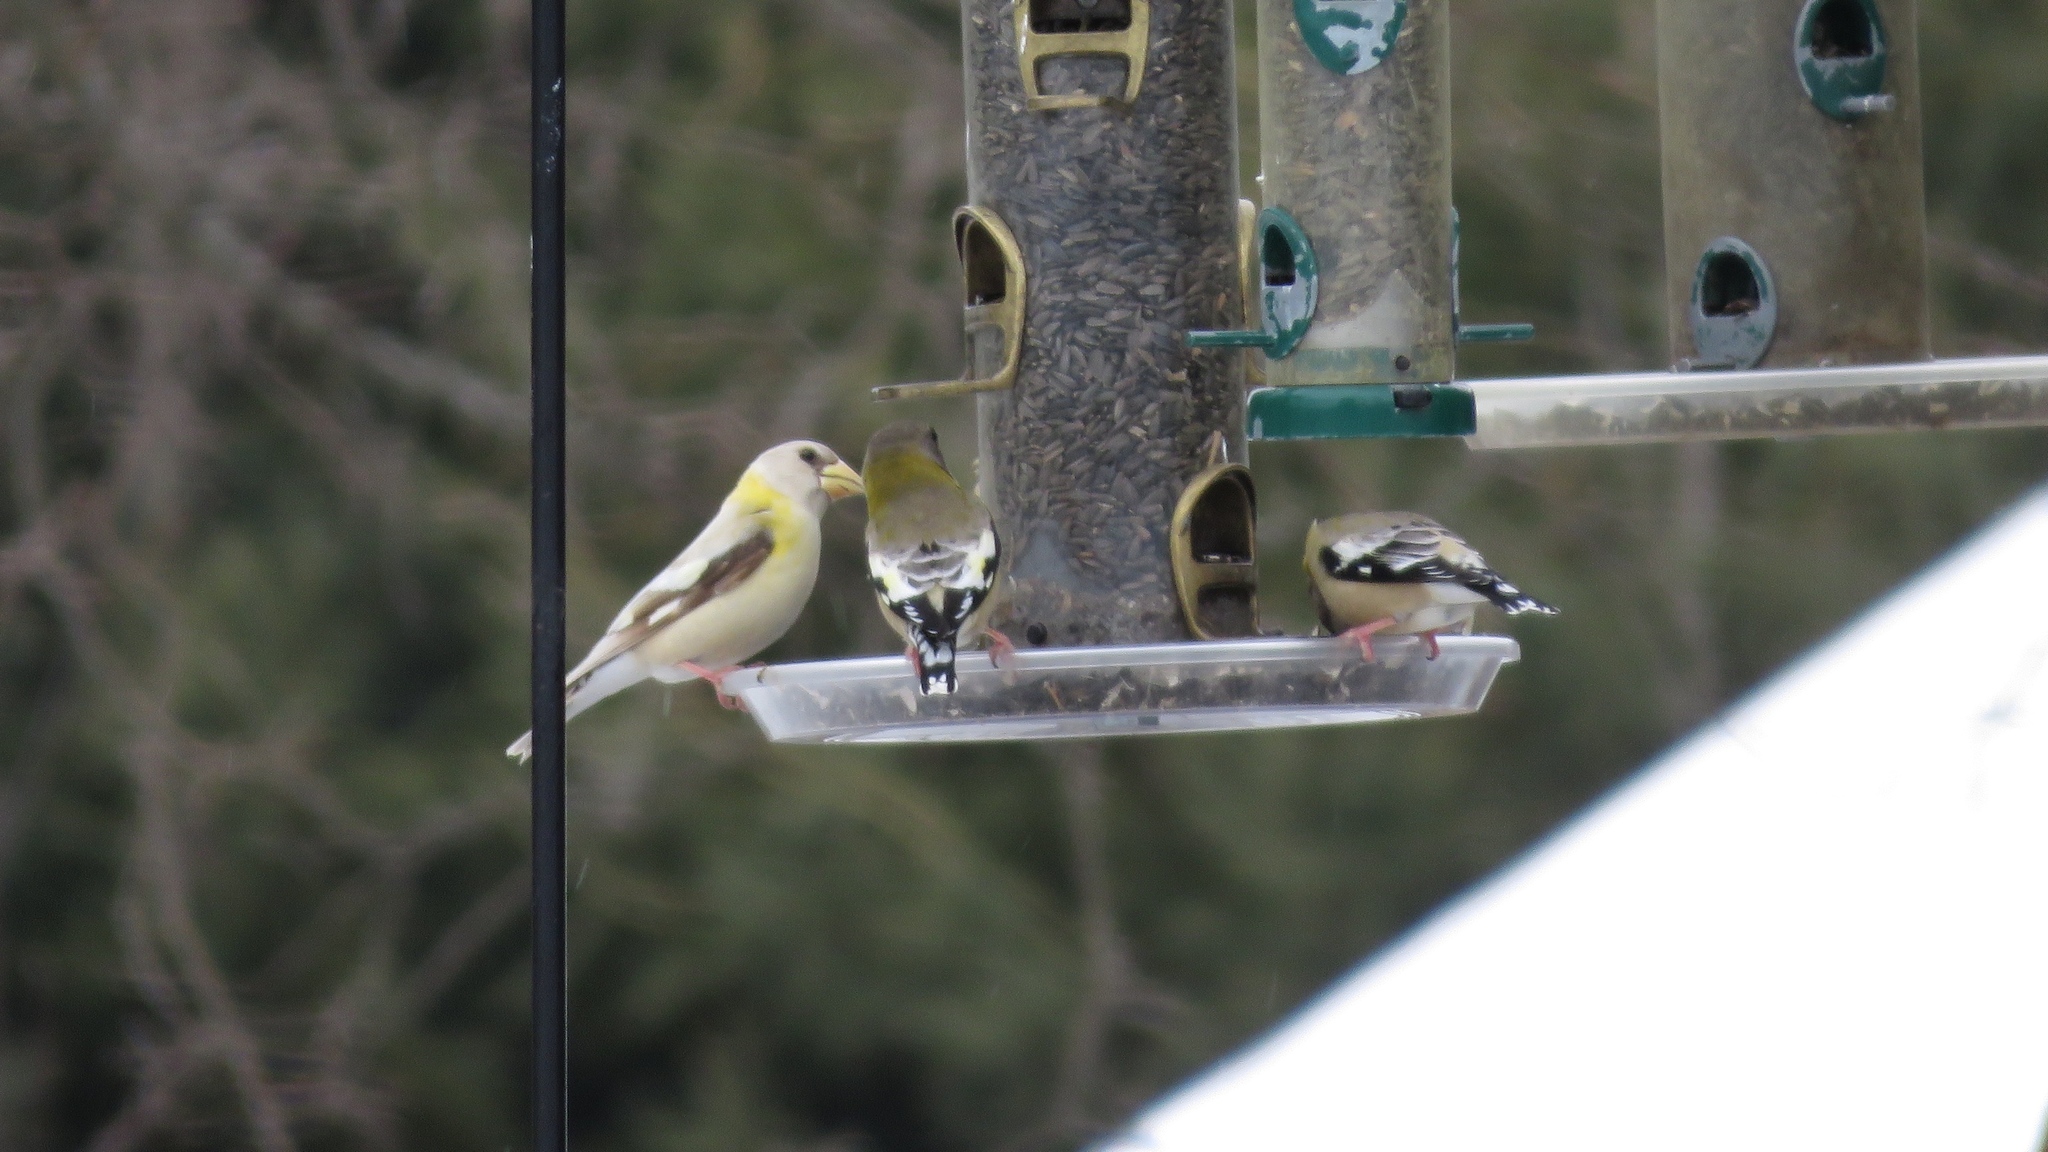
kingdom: Animalia
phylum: Chordata
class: Aves
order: Passeriformes
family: Fringillidae
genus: Hesperiphona
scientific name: Hesperiphona vespertina
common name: Evening grosbeak
